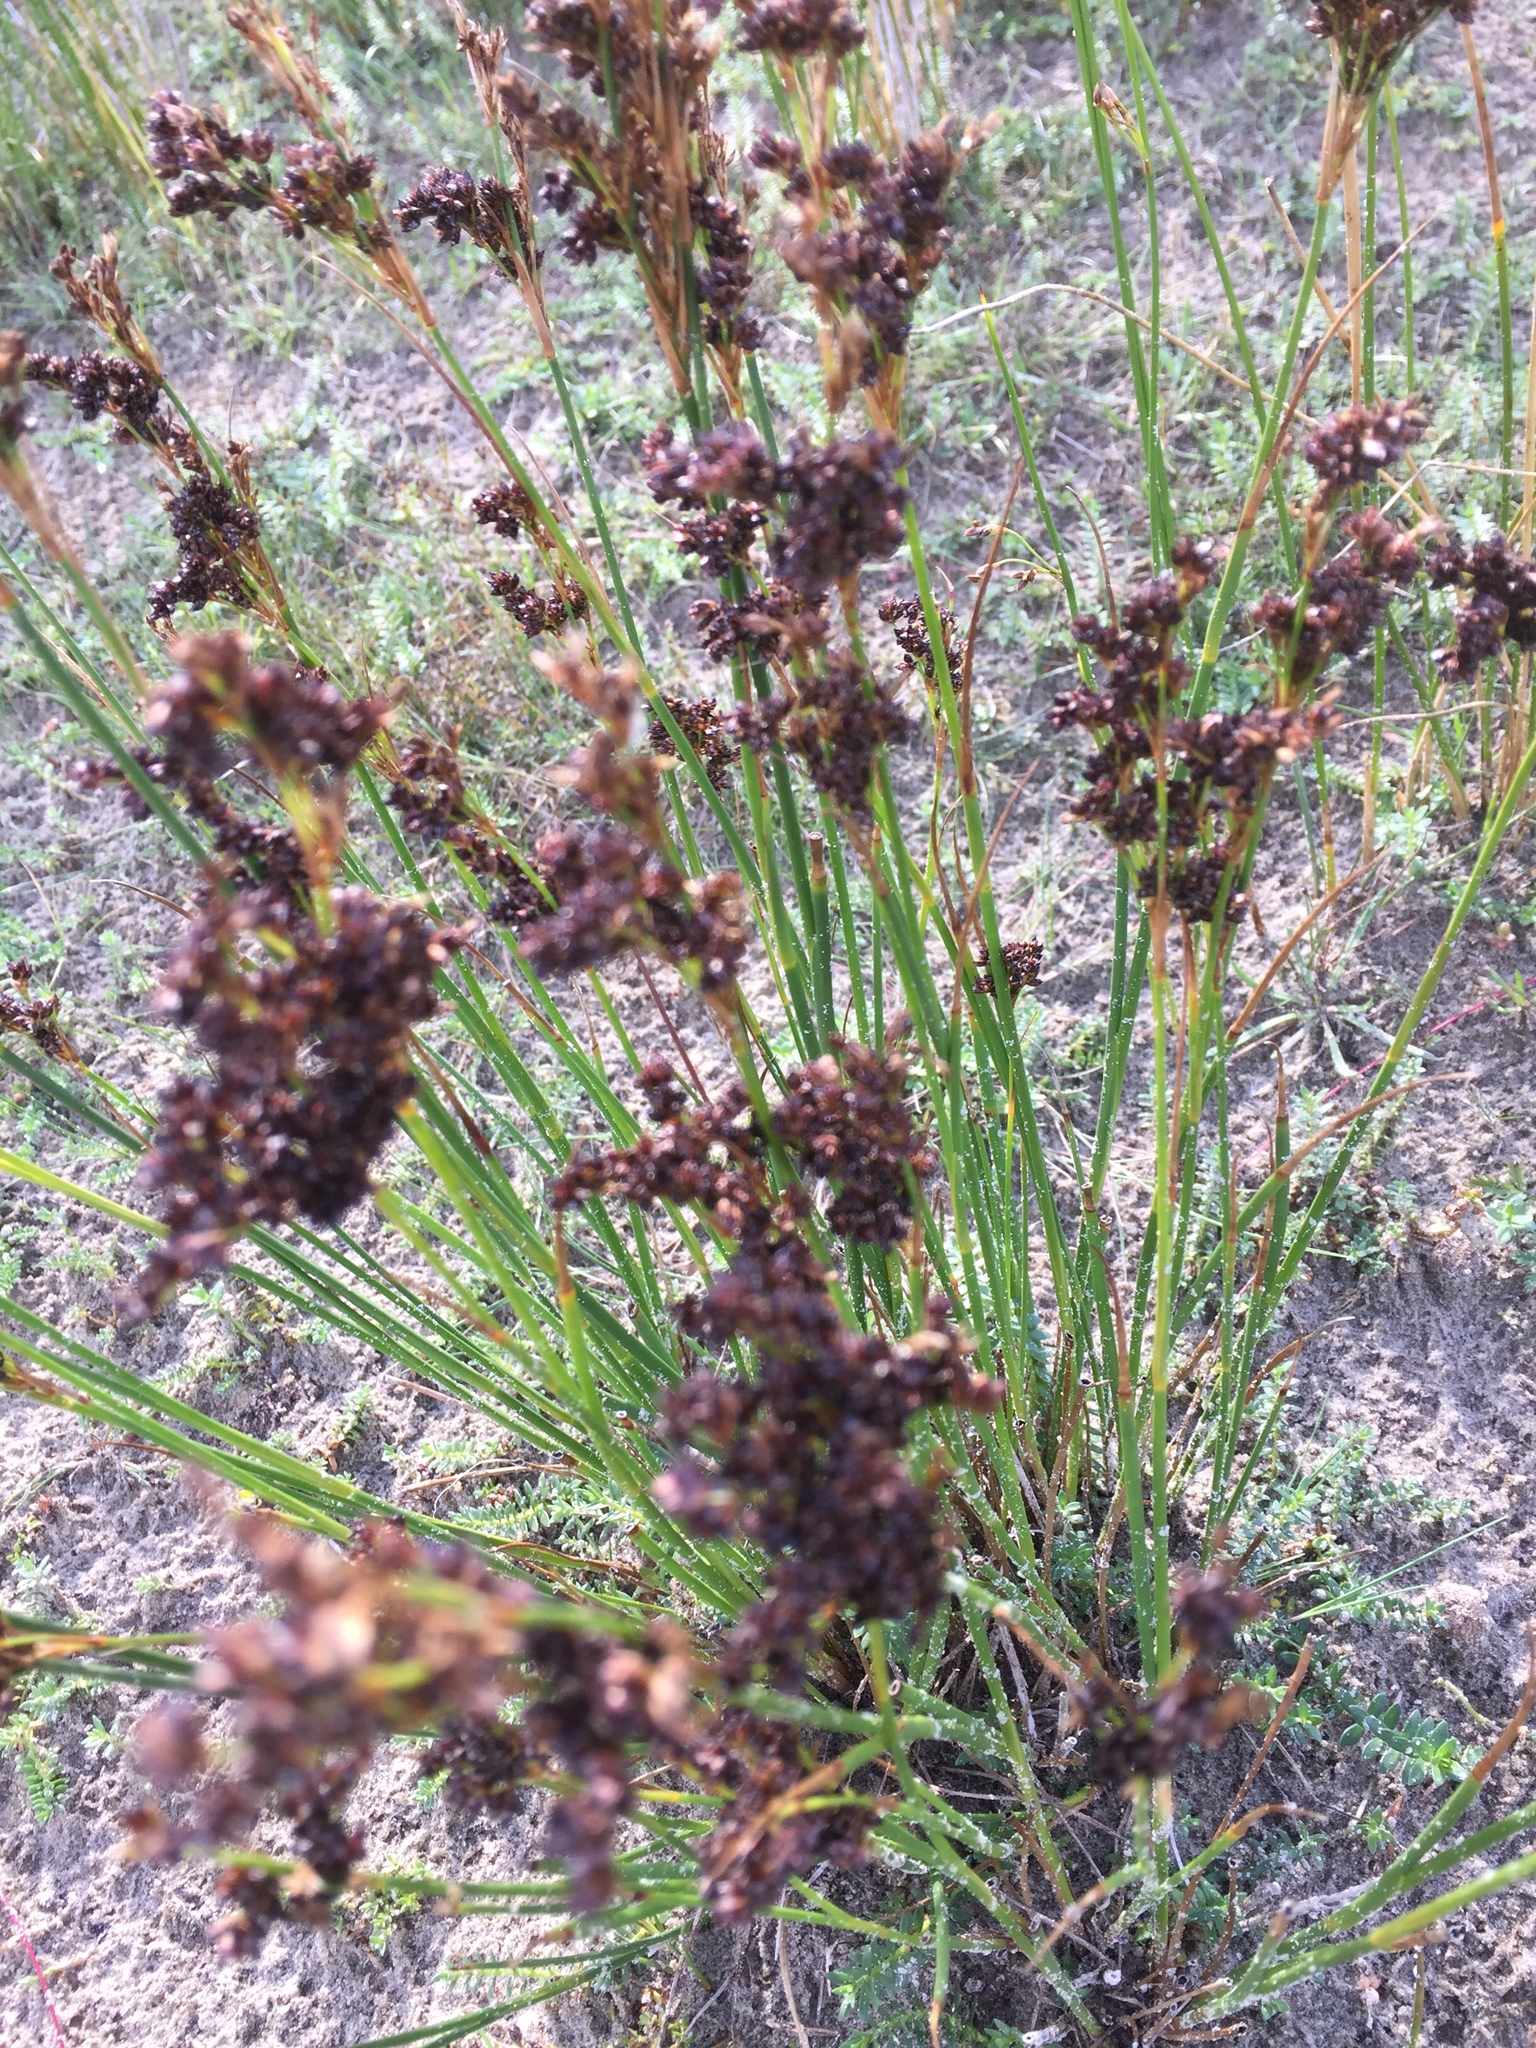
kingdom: Plantae
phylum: Tracheophyta
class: Liliopsida
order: Poales
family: Juncaceae
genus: Juncus
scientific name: Juncus maritimus
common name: Sea rush
